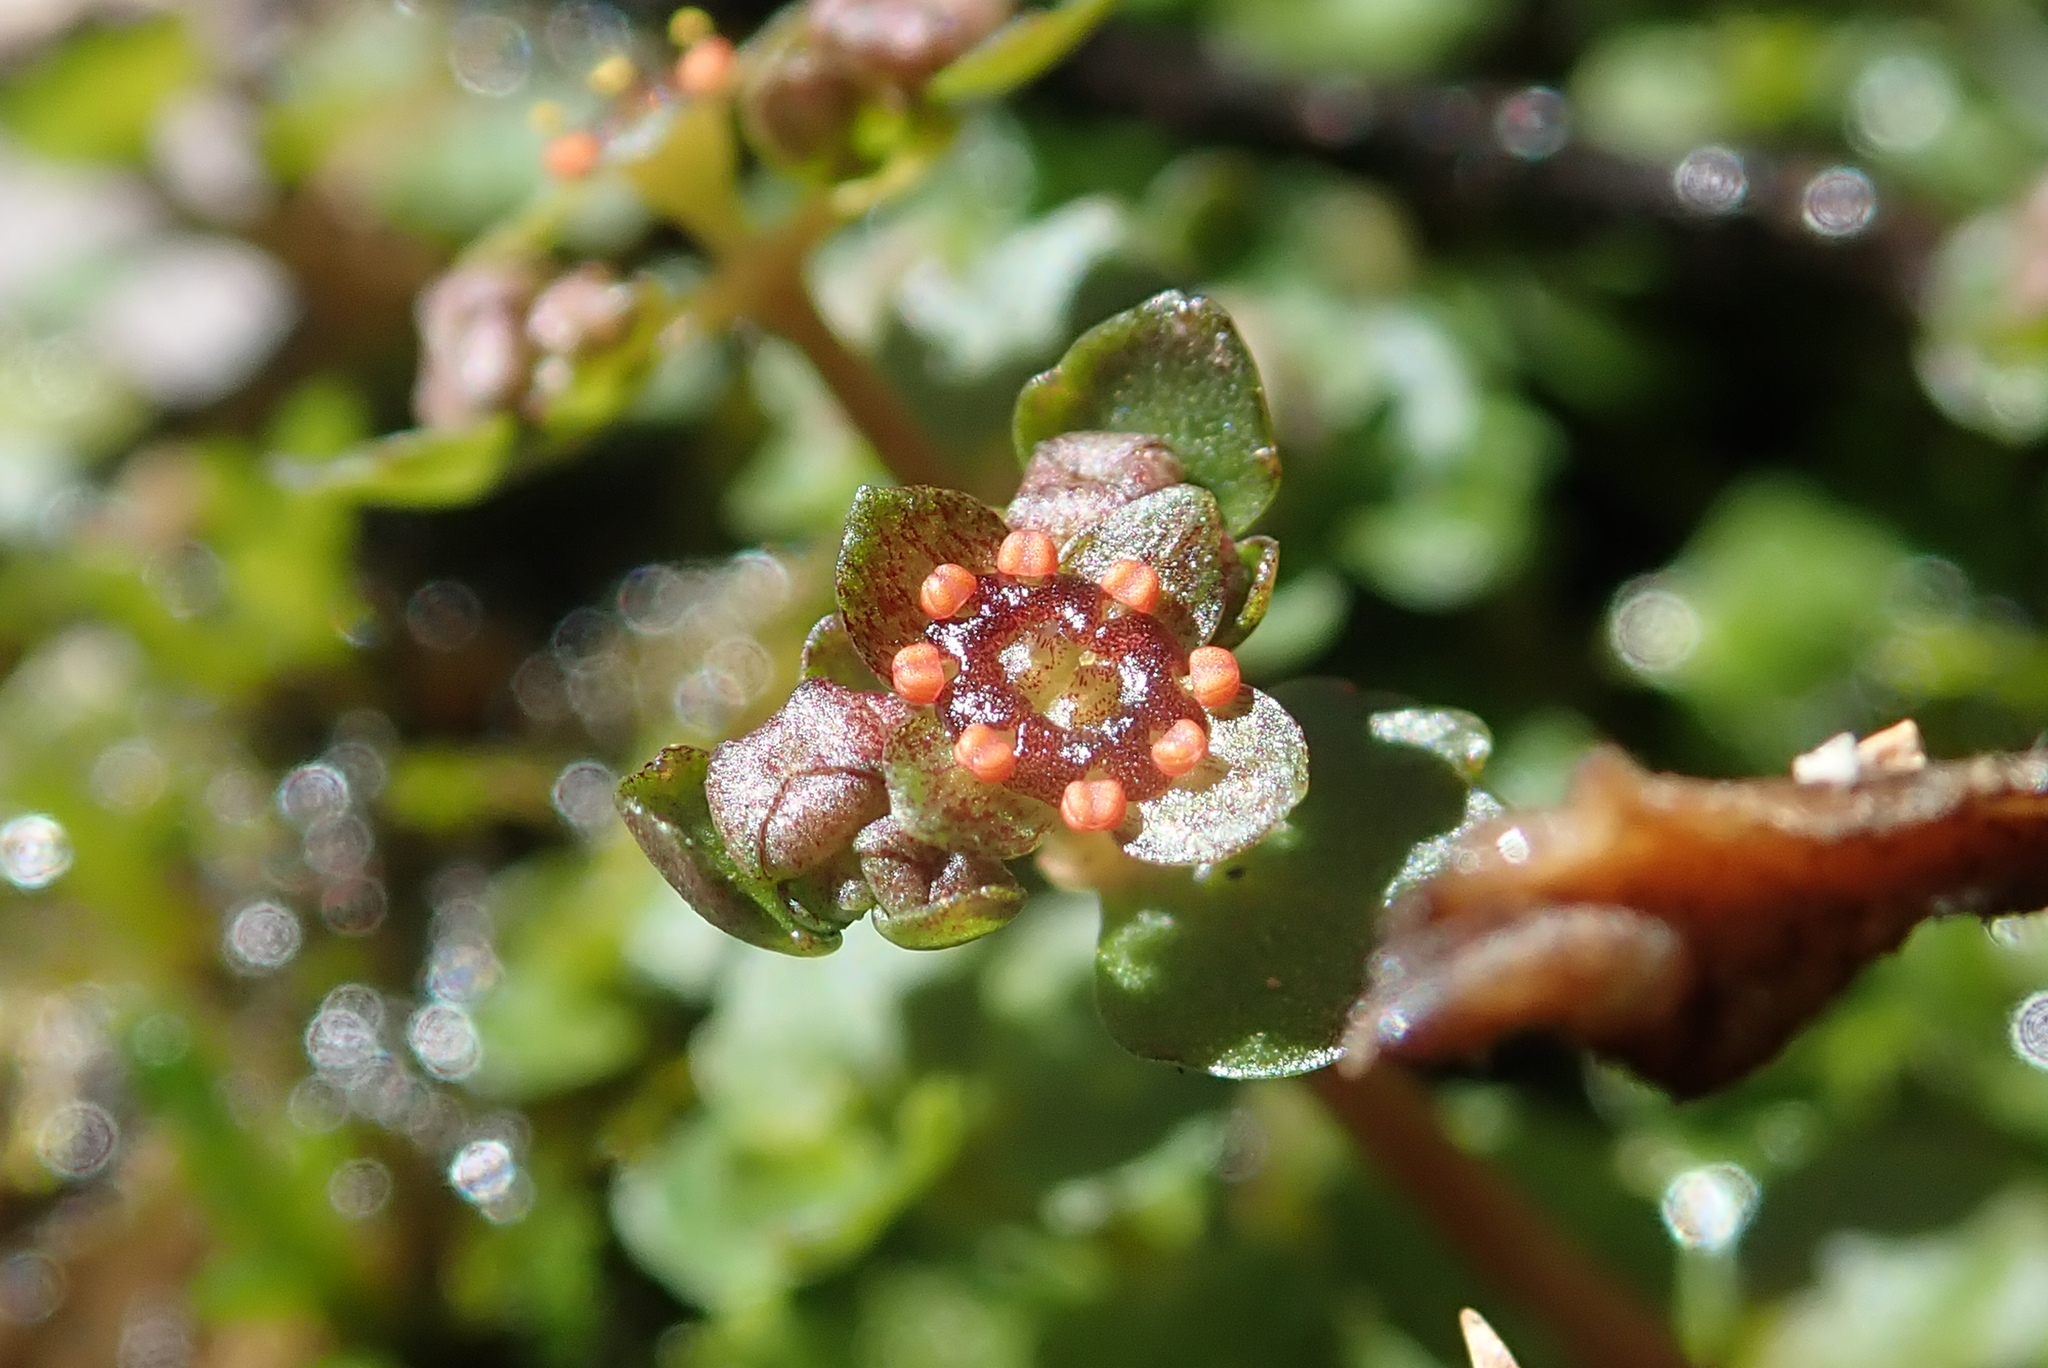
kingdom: Plantae
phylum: Tracheophyta
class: Magnoliopsida
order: Saxifragales
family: Saxifragaceae
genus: Chrysosplenium
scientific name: Chrysosplenium americanum
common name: American golden-saxifrage
